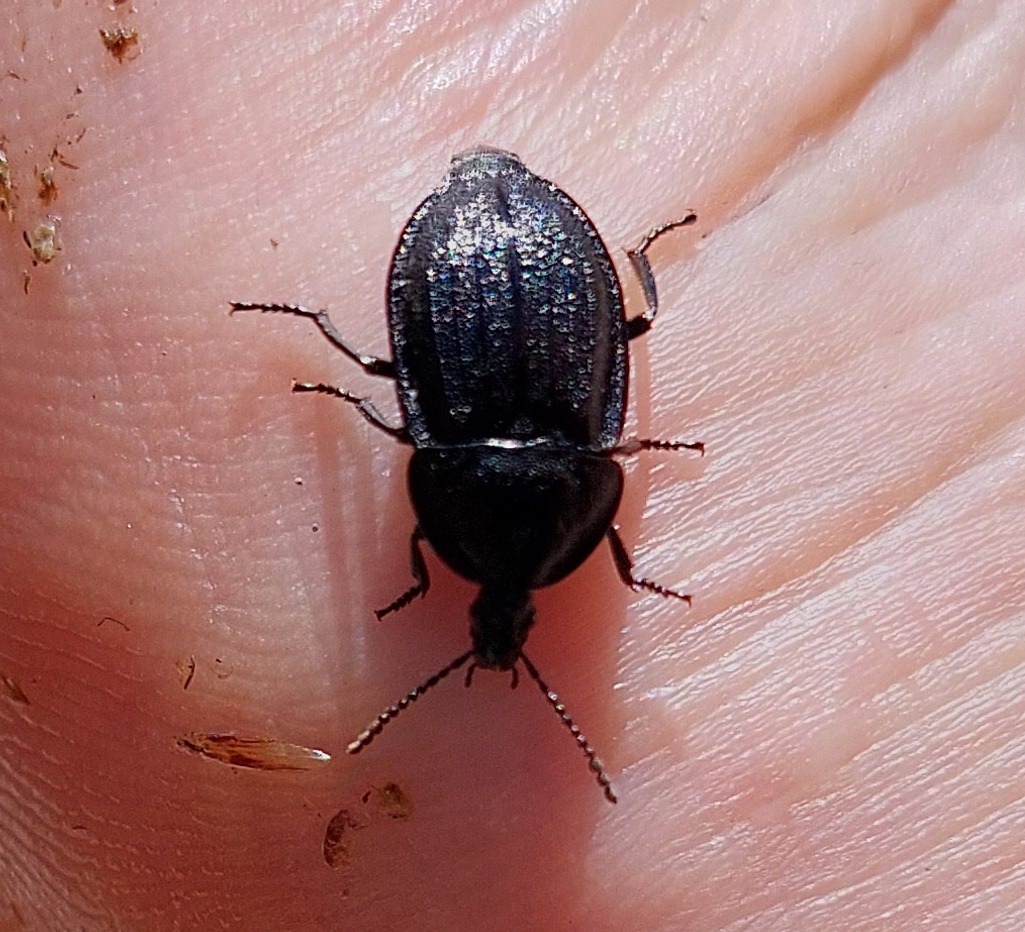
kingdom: Animalia
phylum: Arthropoda
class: Insecta
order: Coleoptera
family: Staphylinidae
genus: Silpha
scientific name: Silpha atrata
